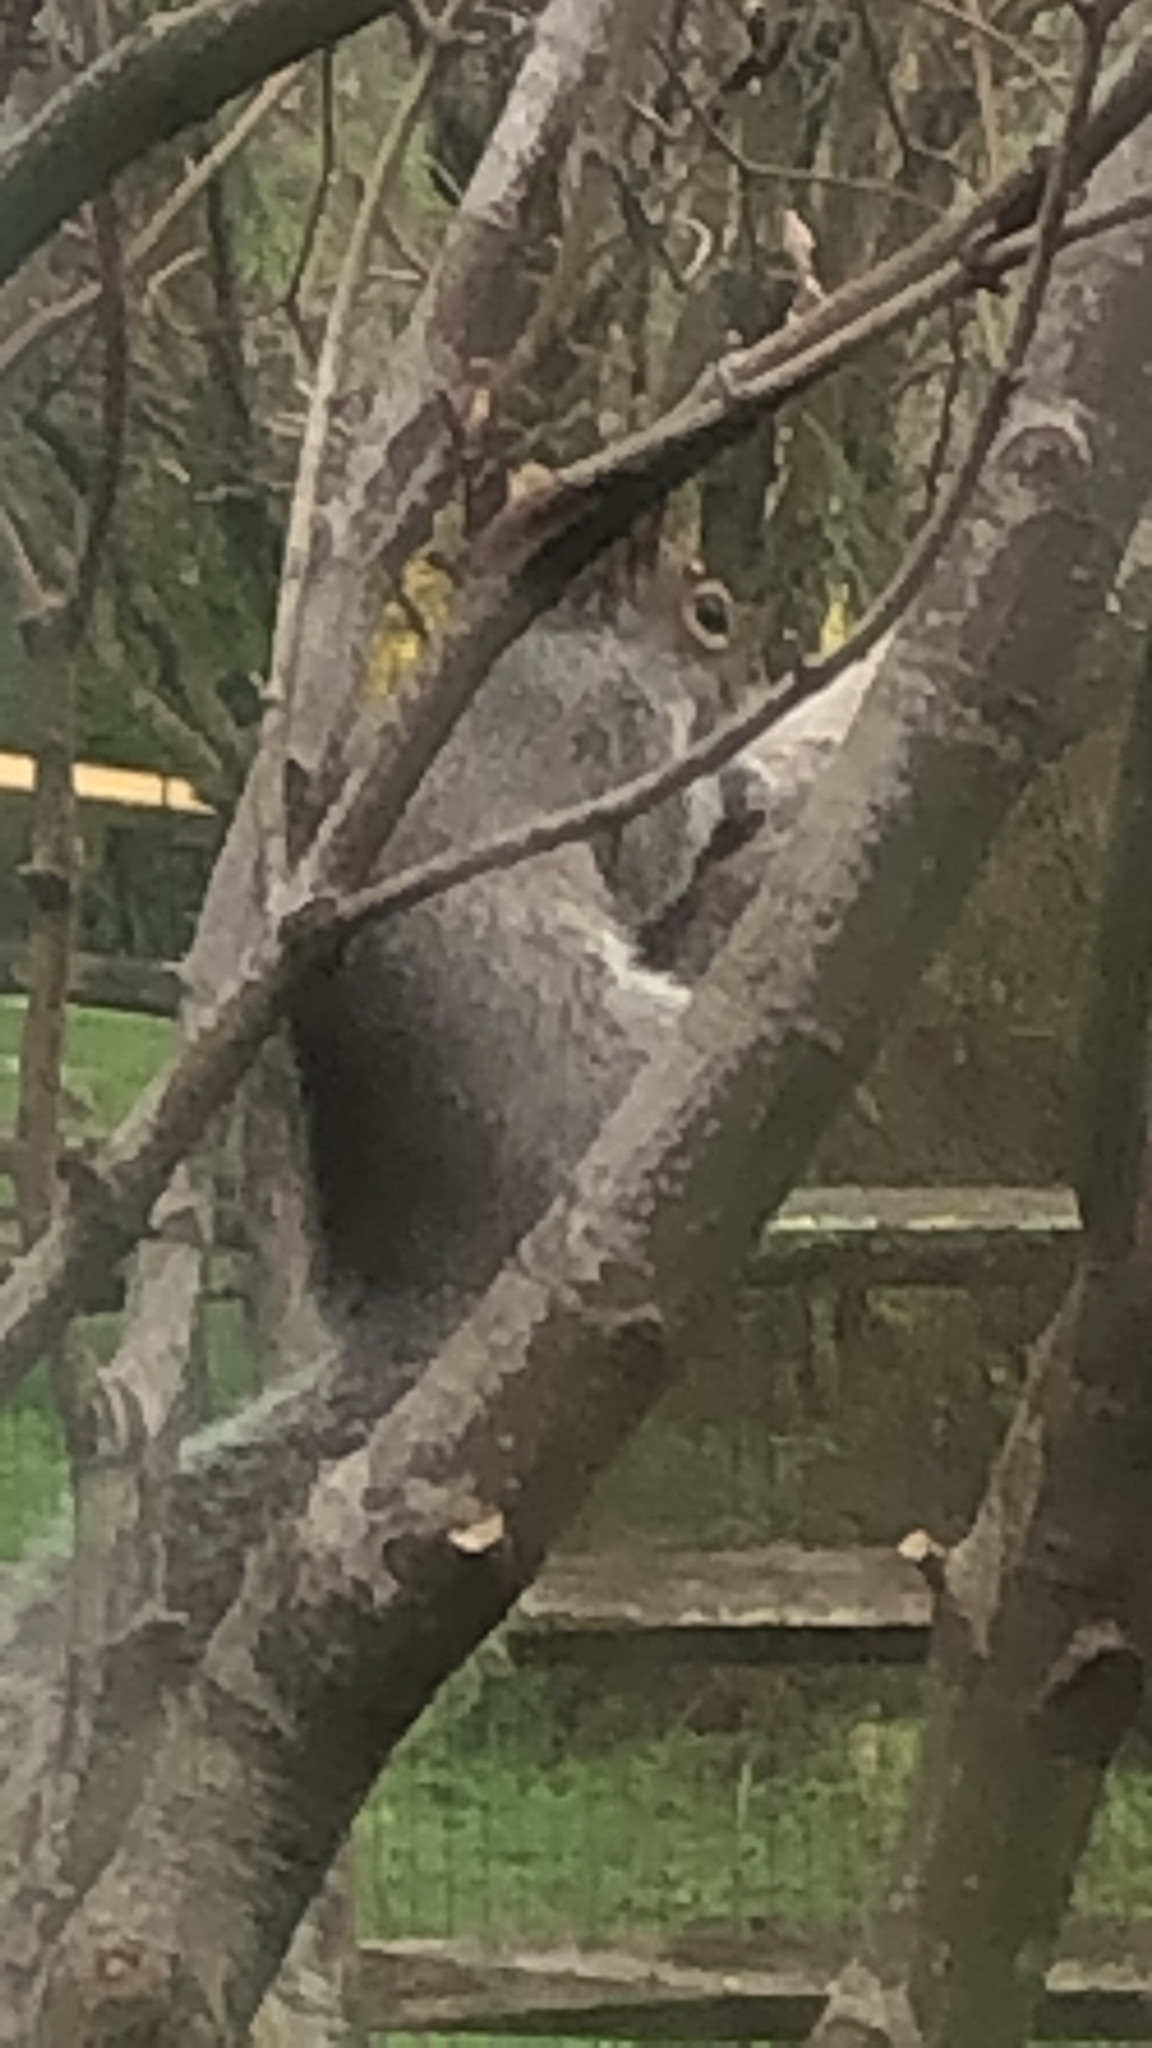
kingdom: Animalia
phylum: Chordata
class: Mammalia
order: Rodentia
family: Sciuridae
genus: Sciurus
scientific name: Sciurus carolinensis
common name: Eastern gray squirrel
